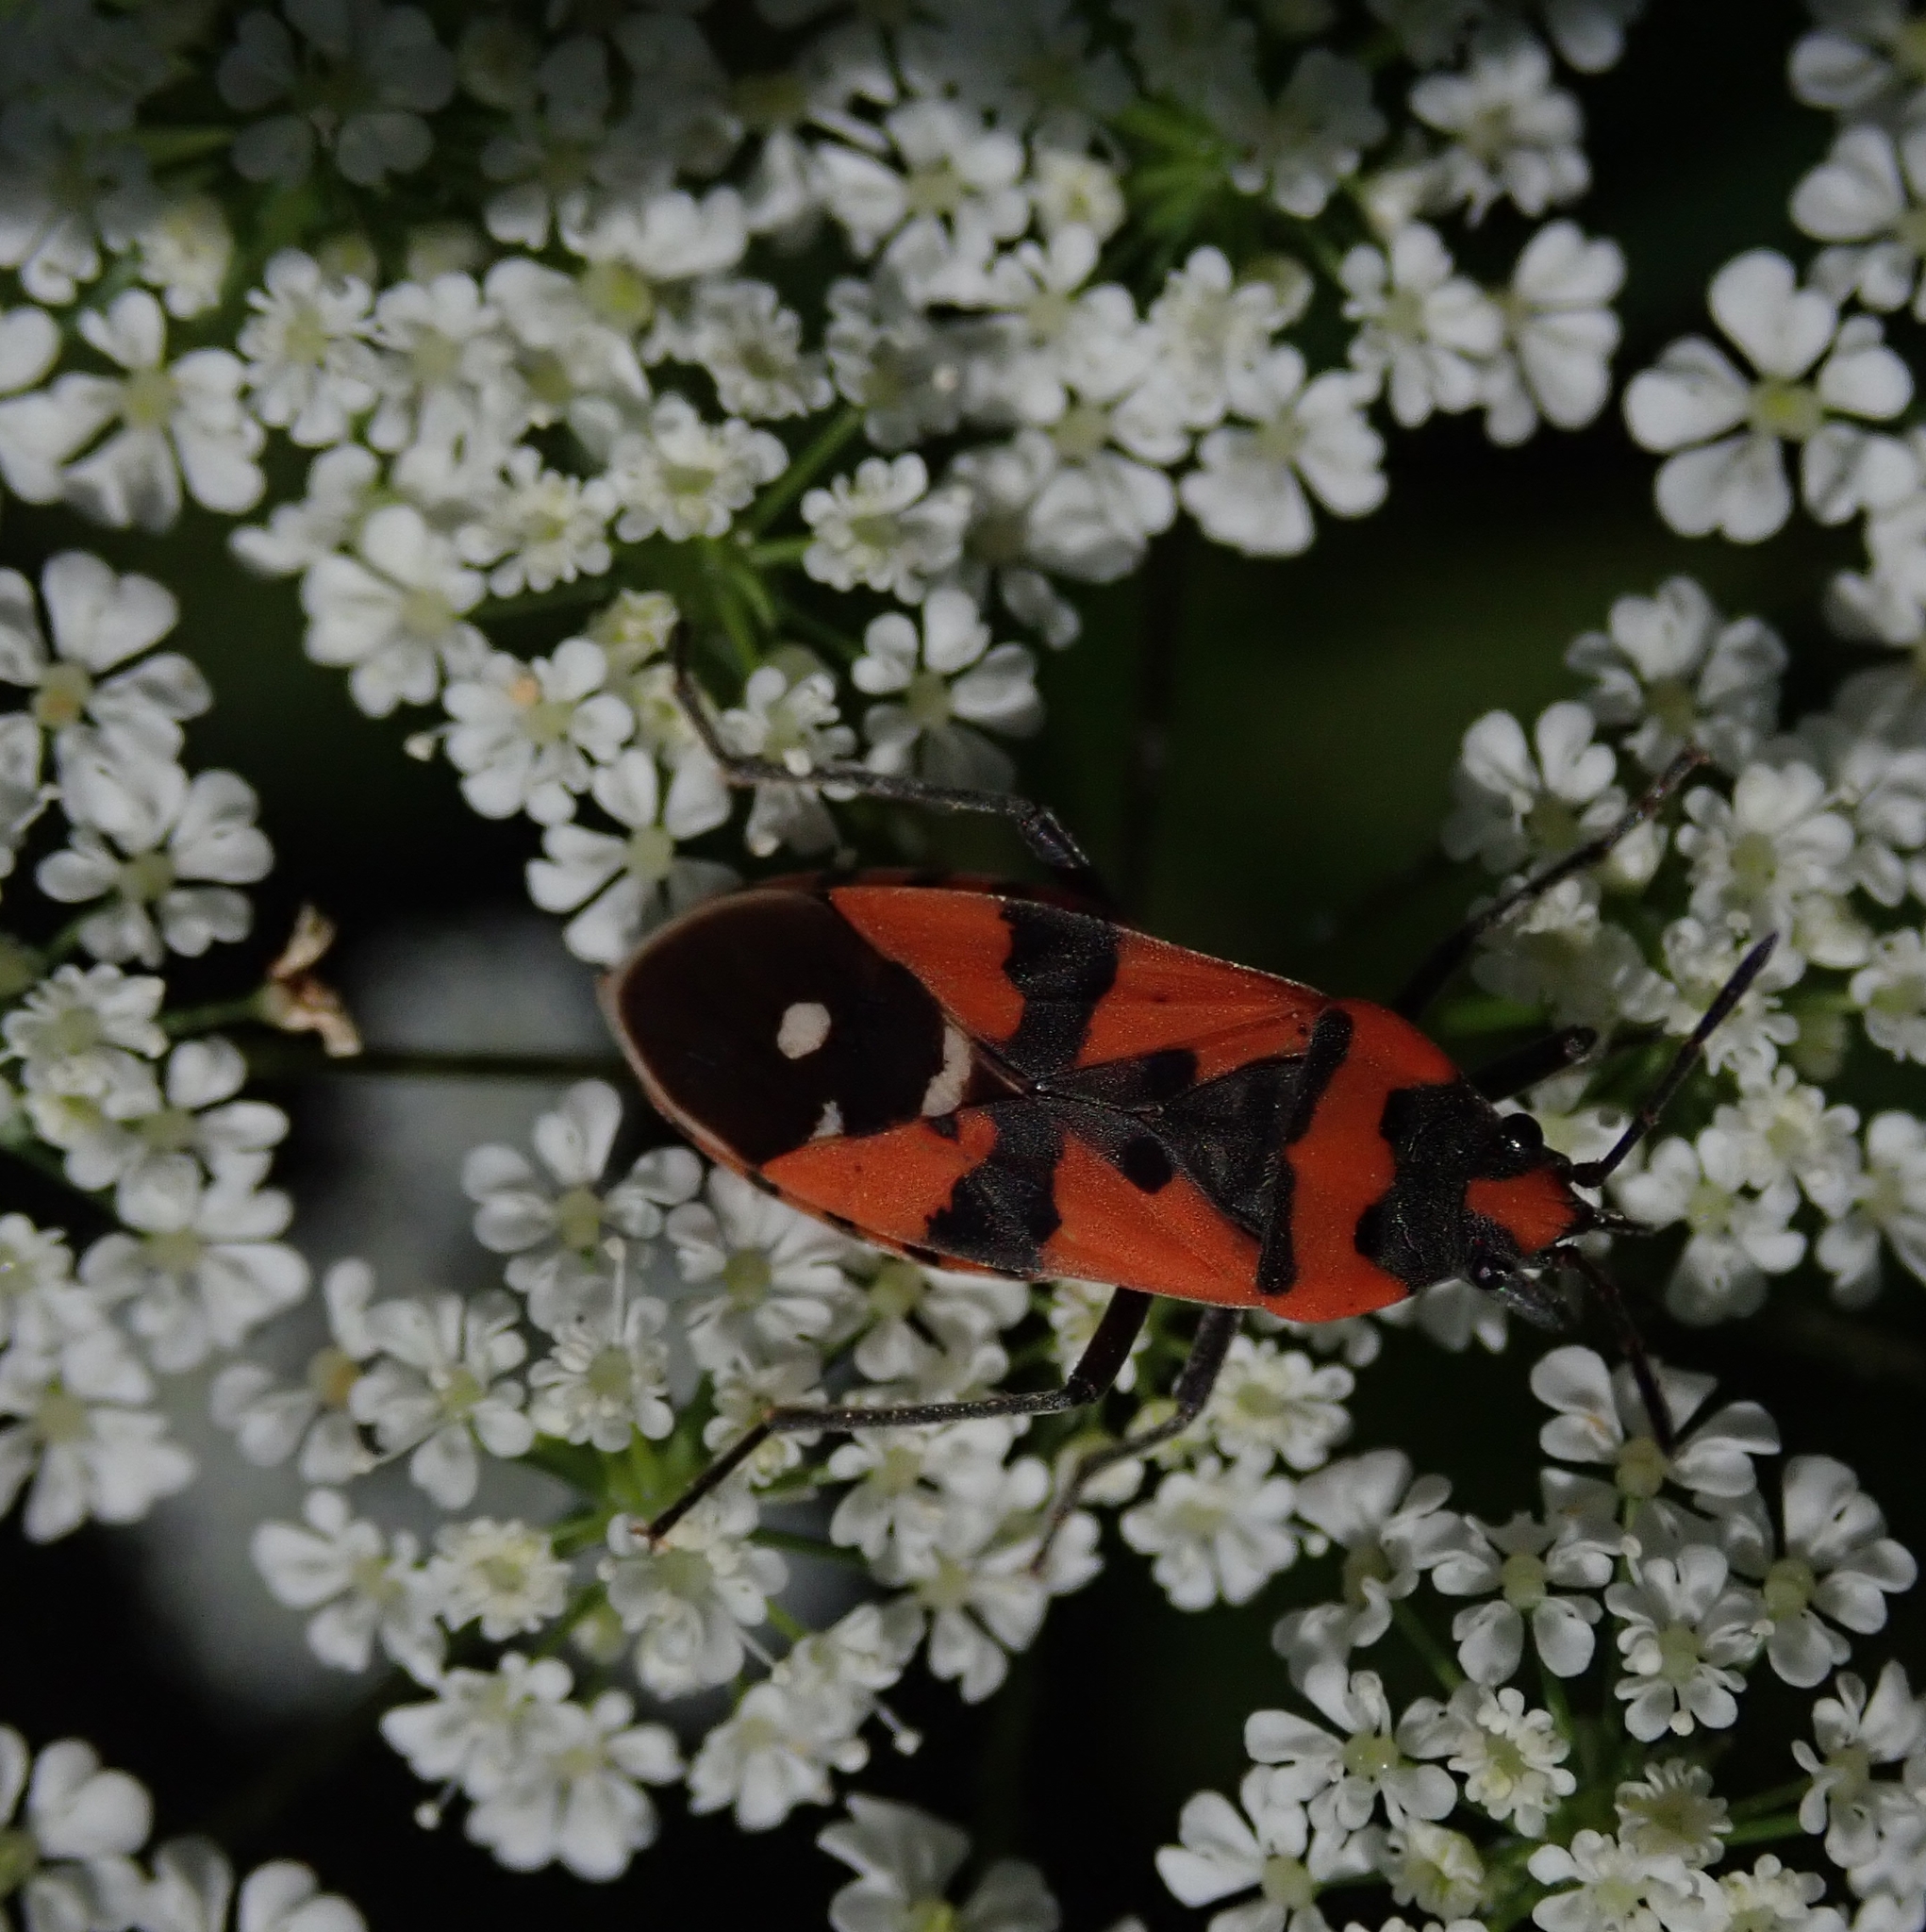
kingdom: Animalia
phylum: Arthropoda
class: Insecta
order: Hemiptera
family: Lygaeidae
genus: Lygaeus
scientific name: Lygaeus equestris
